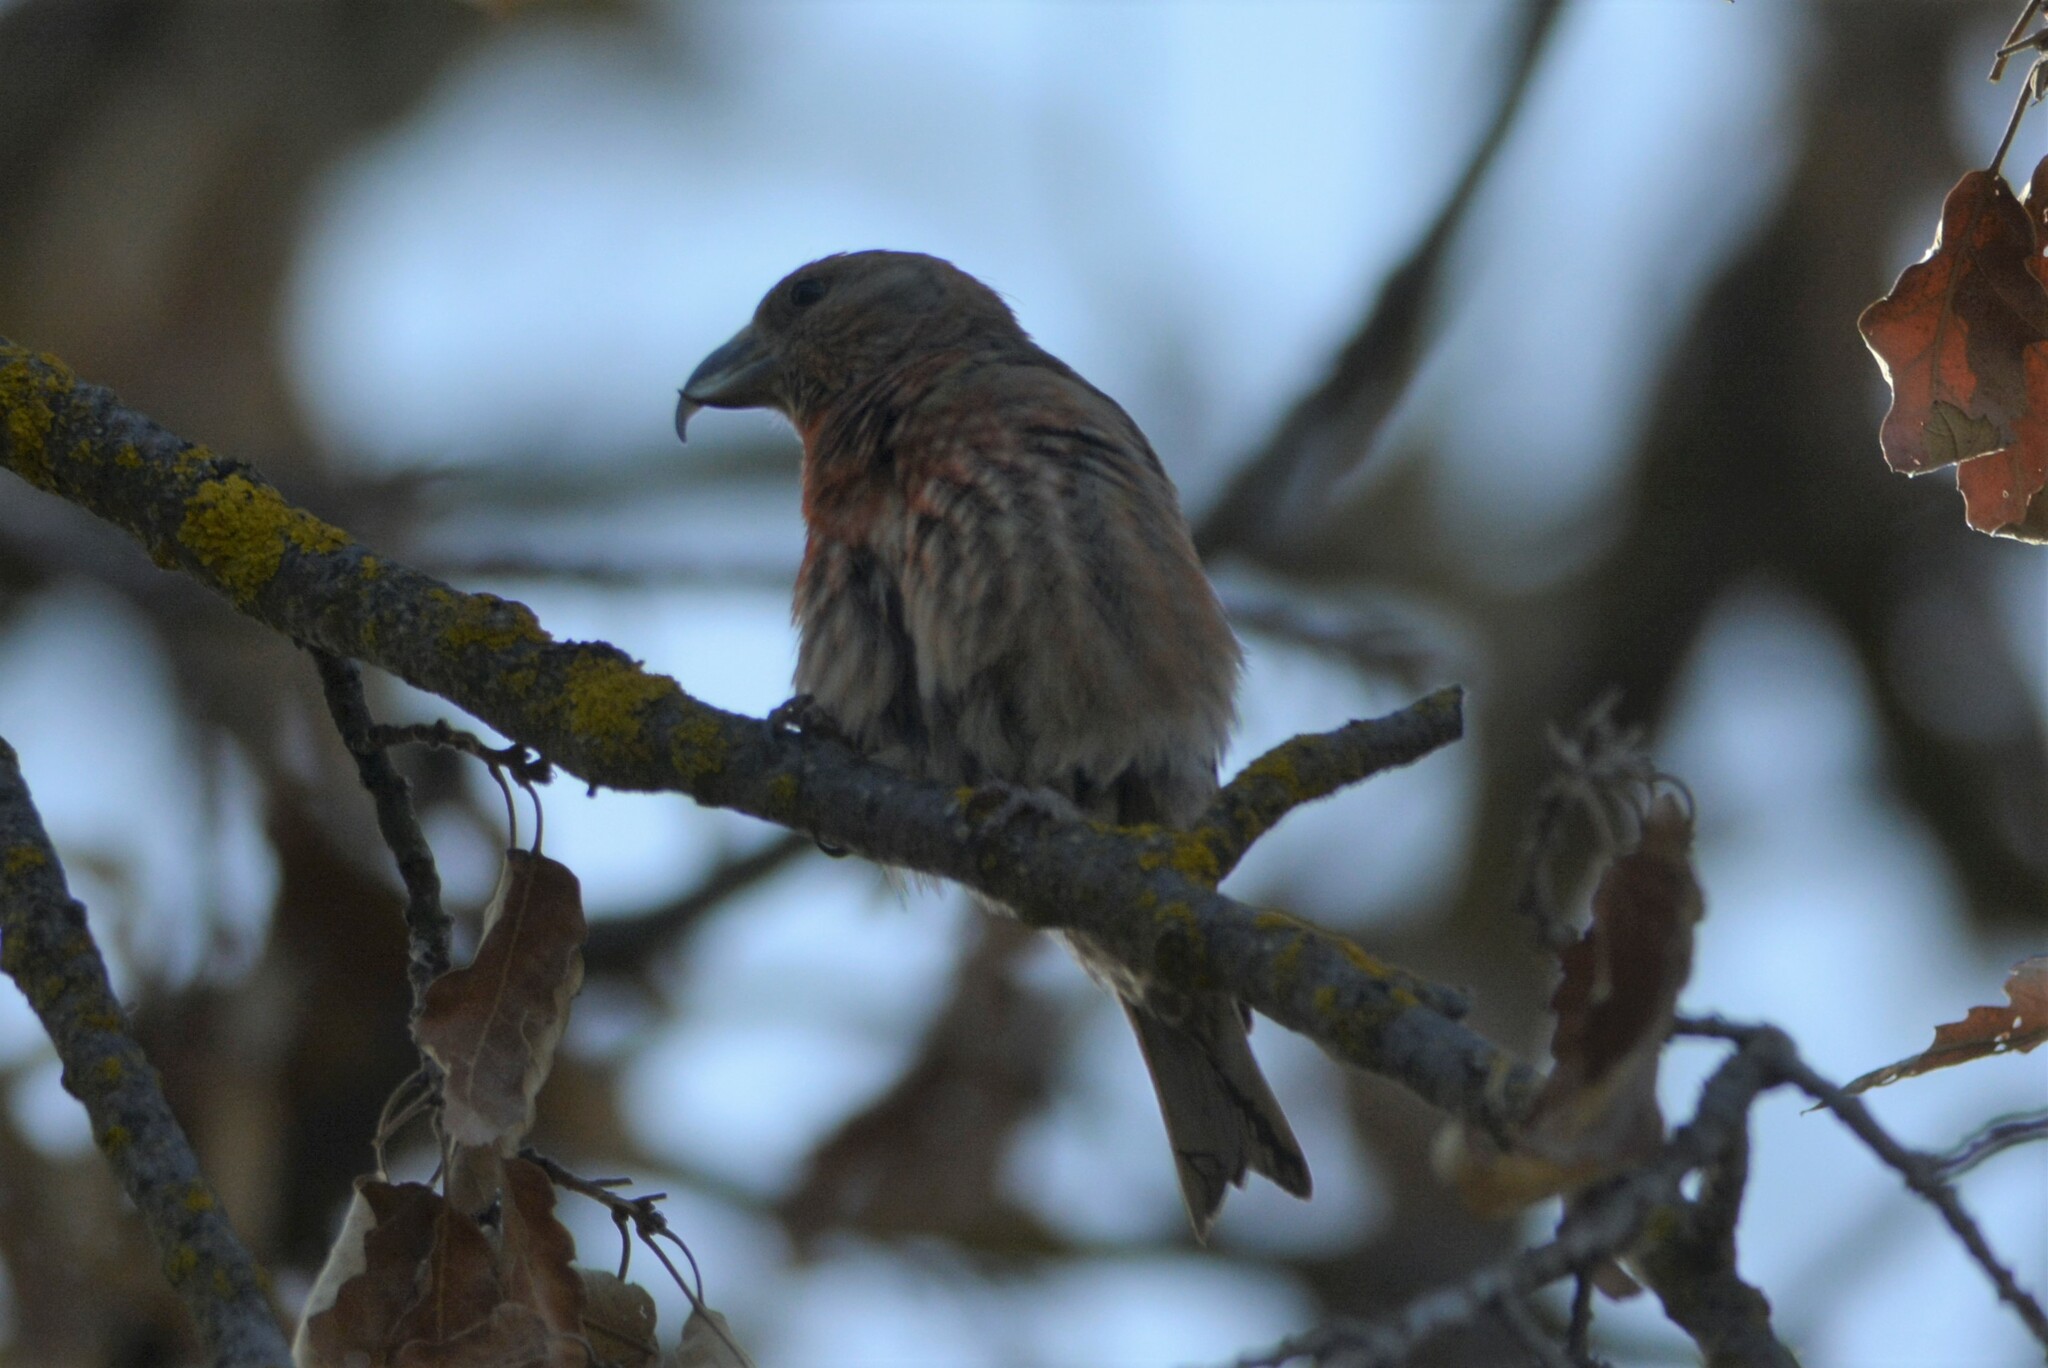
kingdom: Animalia
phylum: Chordata
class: Aves
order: Passeriformes
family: Fringillidae
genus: Loxia
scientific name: Loxia curvirostra
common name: Red crossbill
